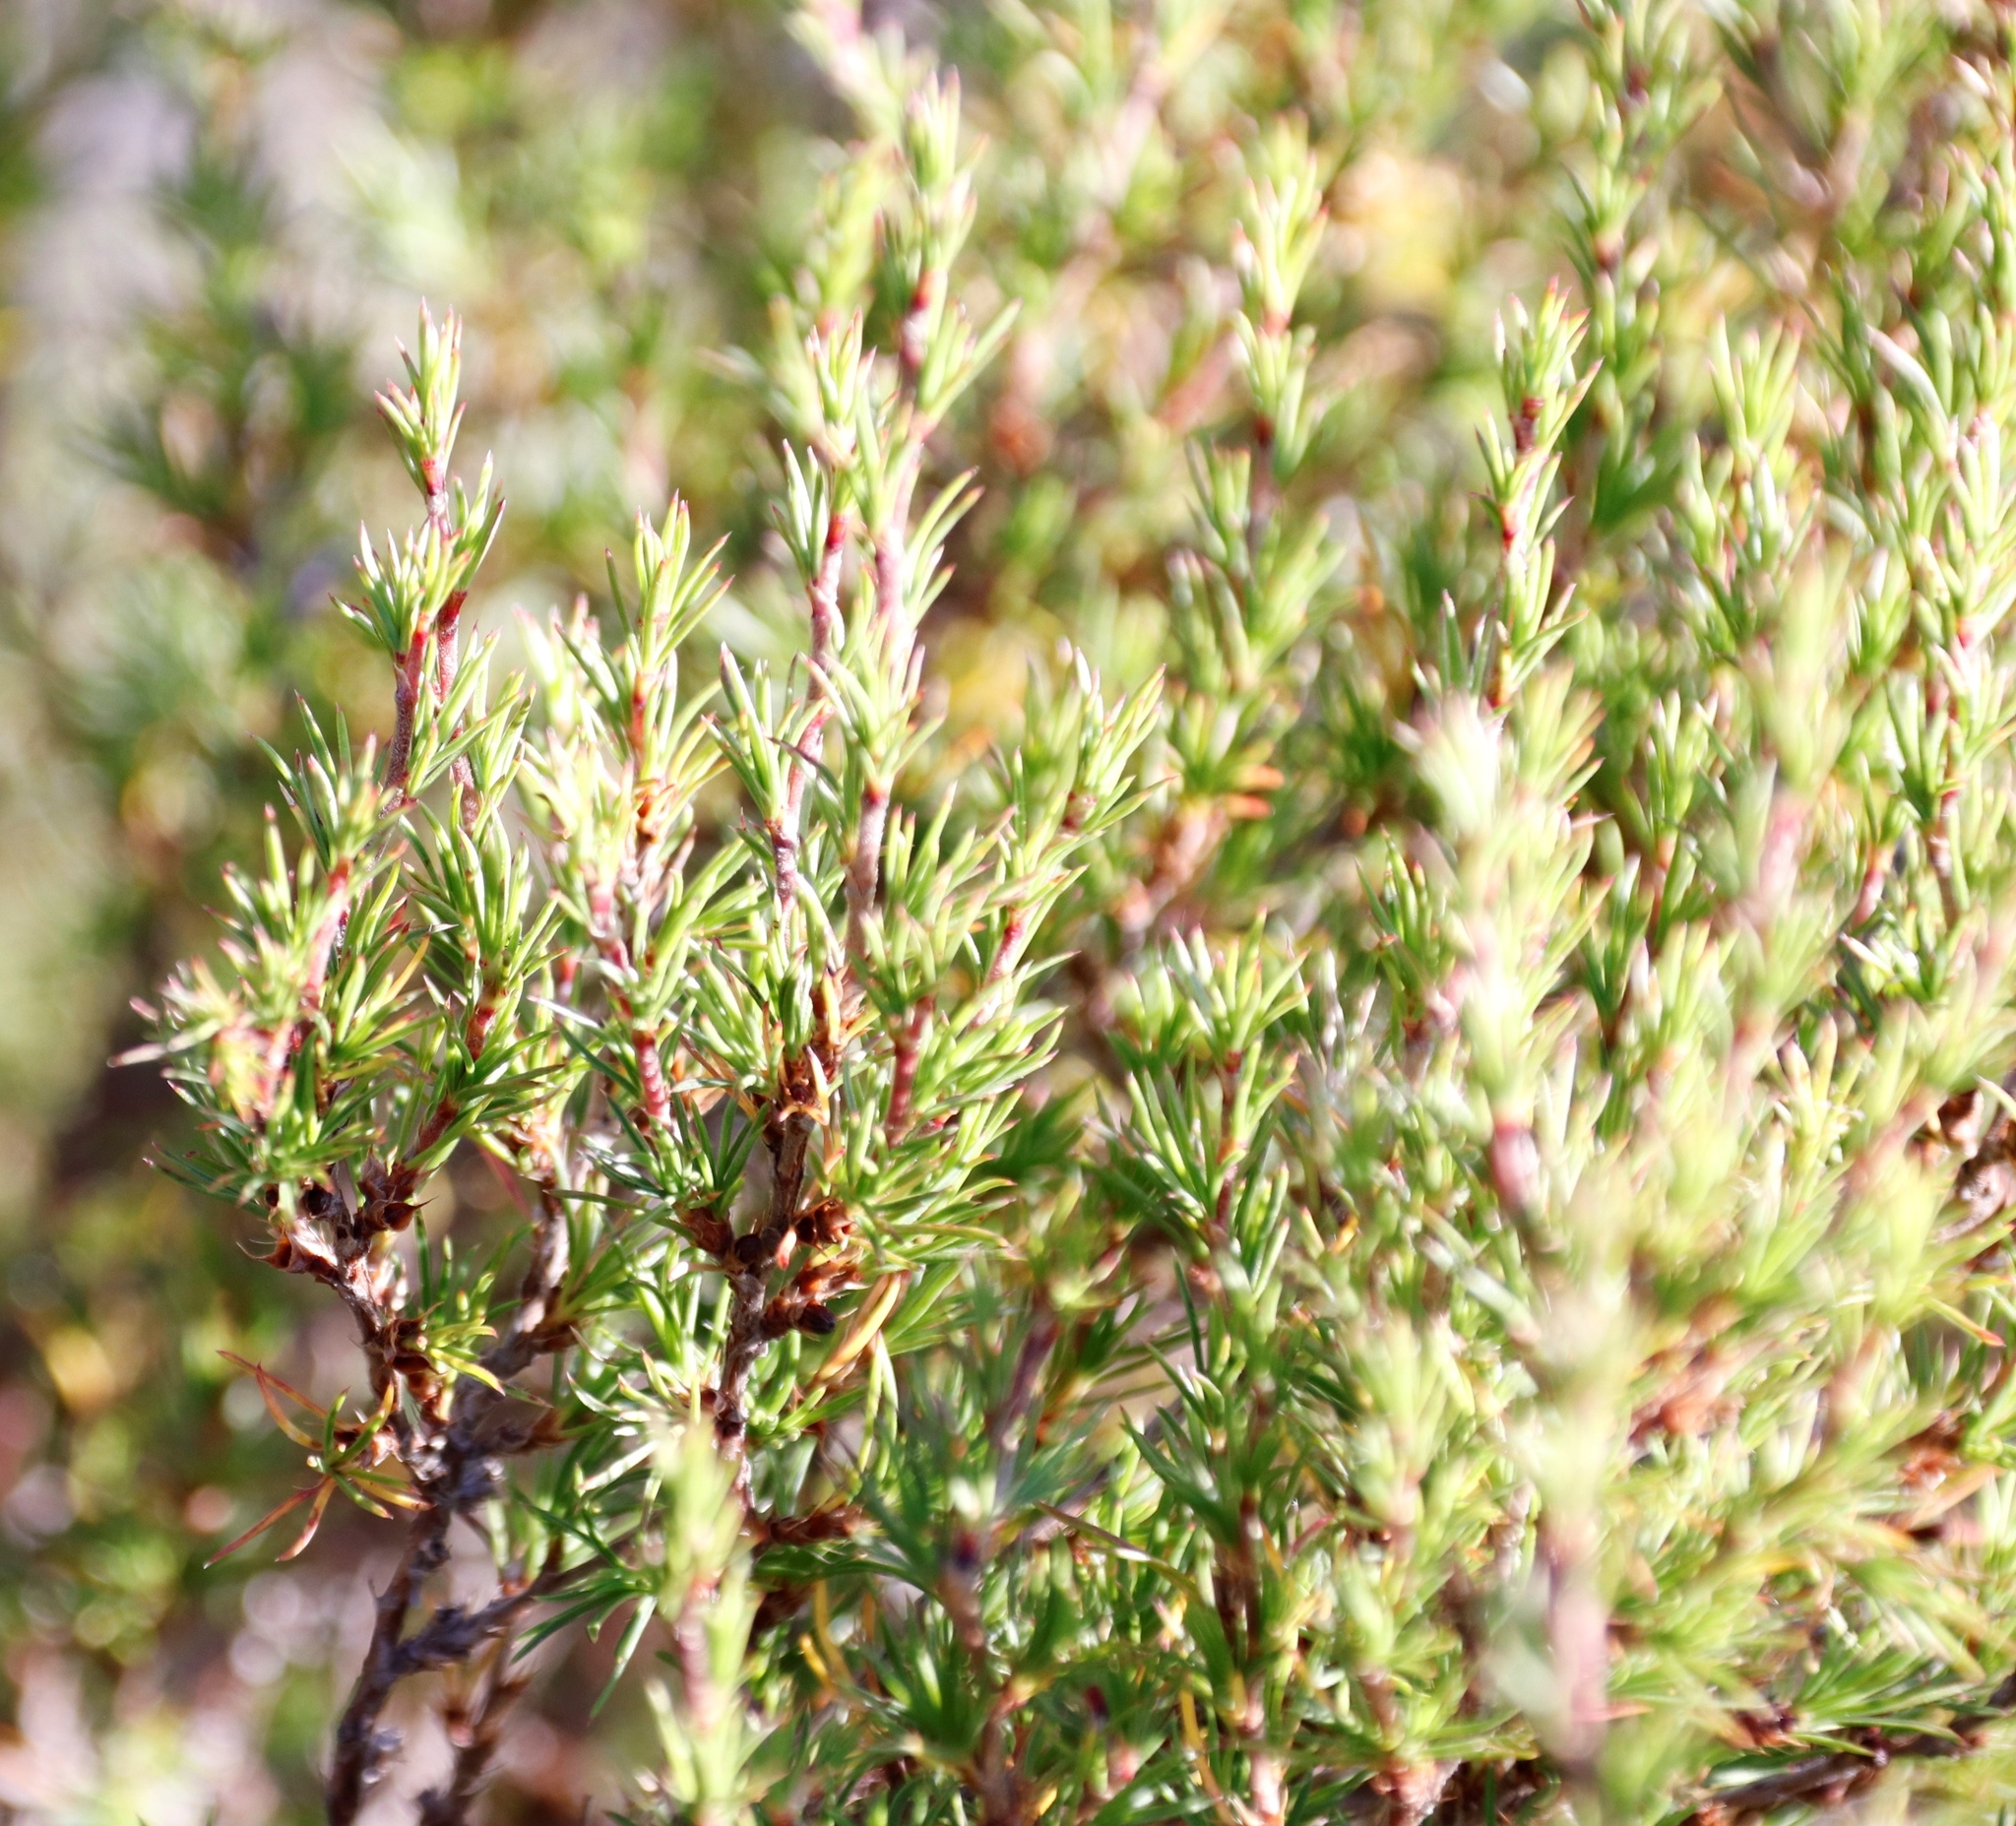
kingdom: Plantae
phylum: Tracheophyta
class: Magnoliopsida
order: Rosales
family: Rosaceae
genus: Cliffortia
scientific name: Cliffortia atrata
